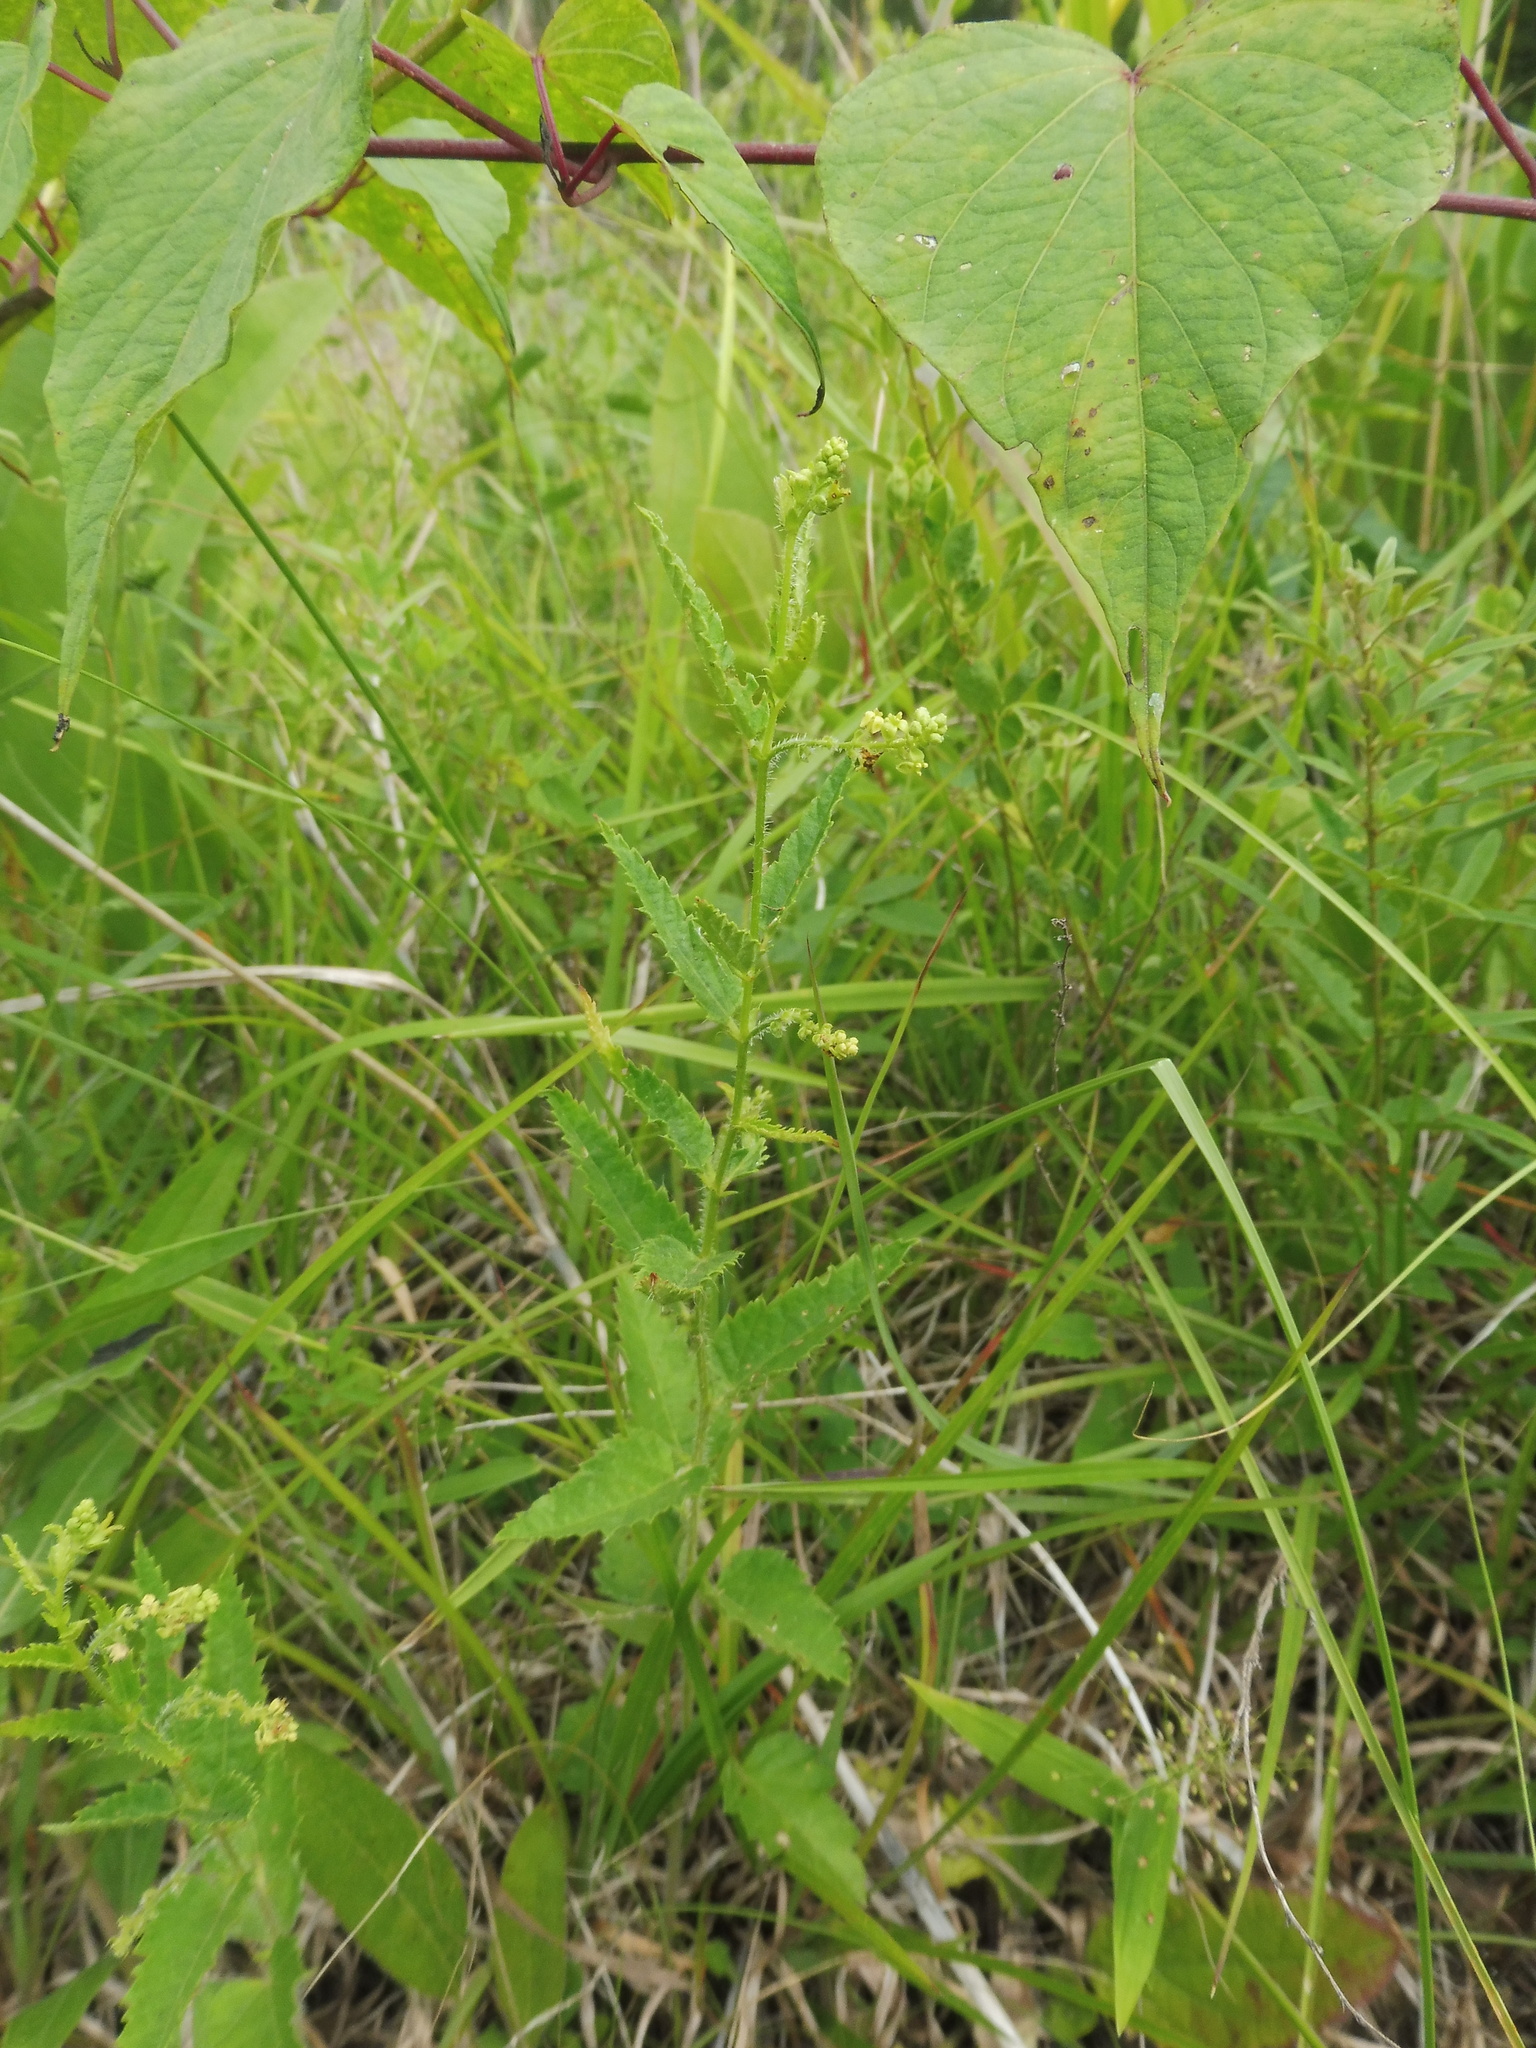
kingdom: Plantae
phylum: Tracheophyta
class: Magnoliopsida
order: Malpighiales
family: Euphorbiaceae
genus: Tragia
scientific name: Tragia urticifolia
